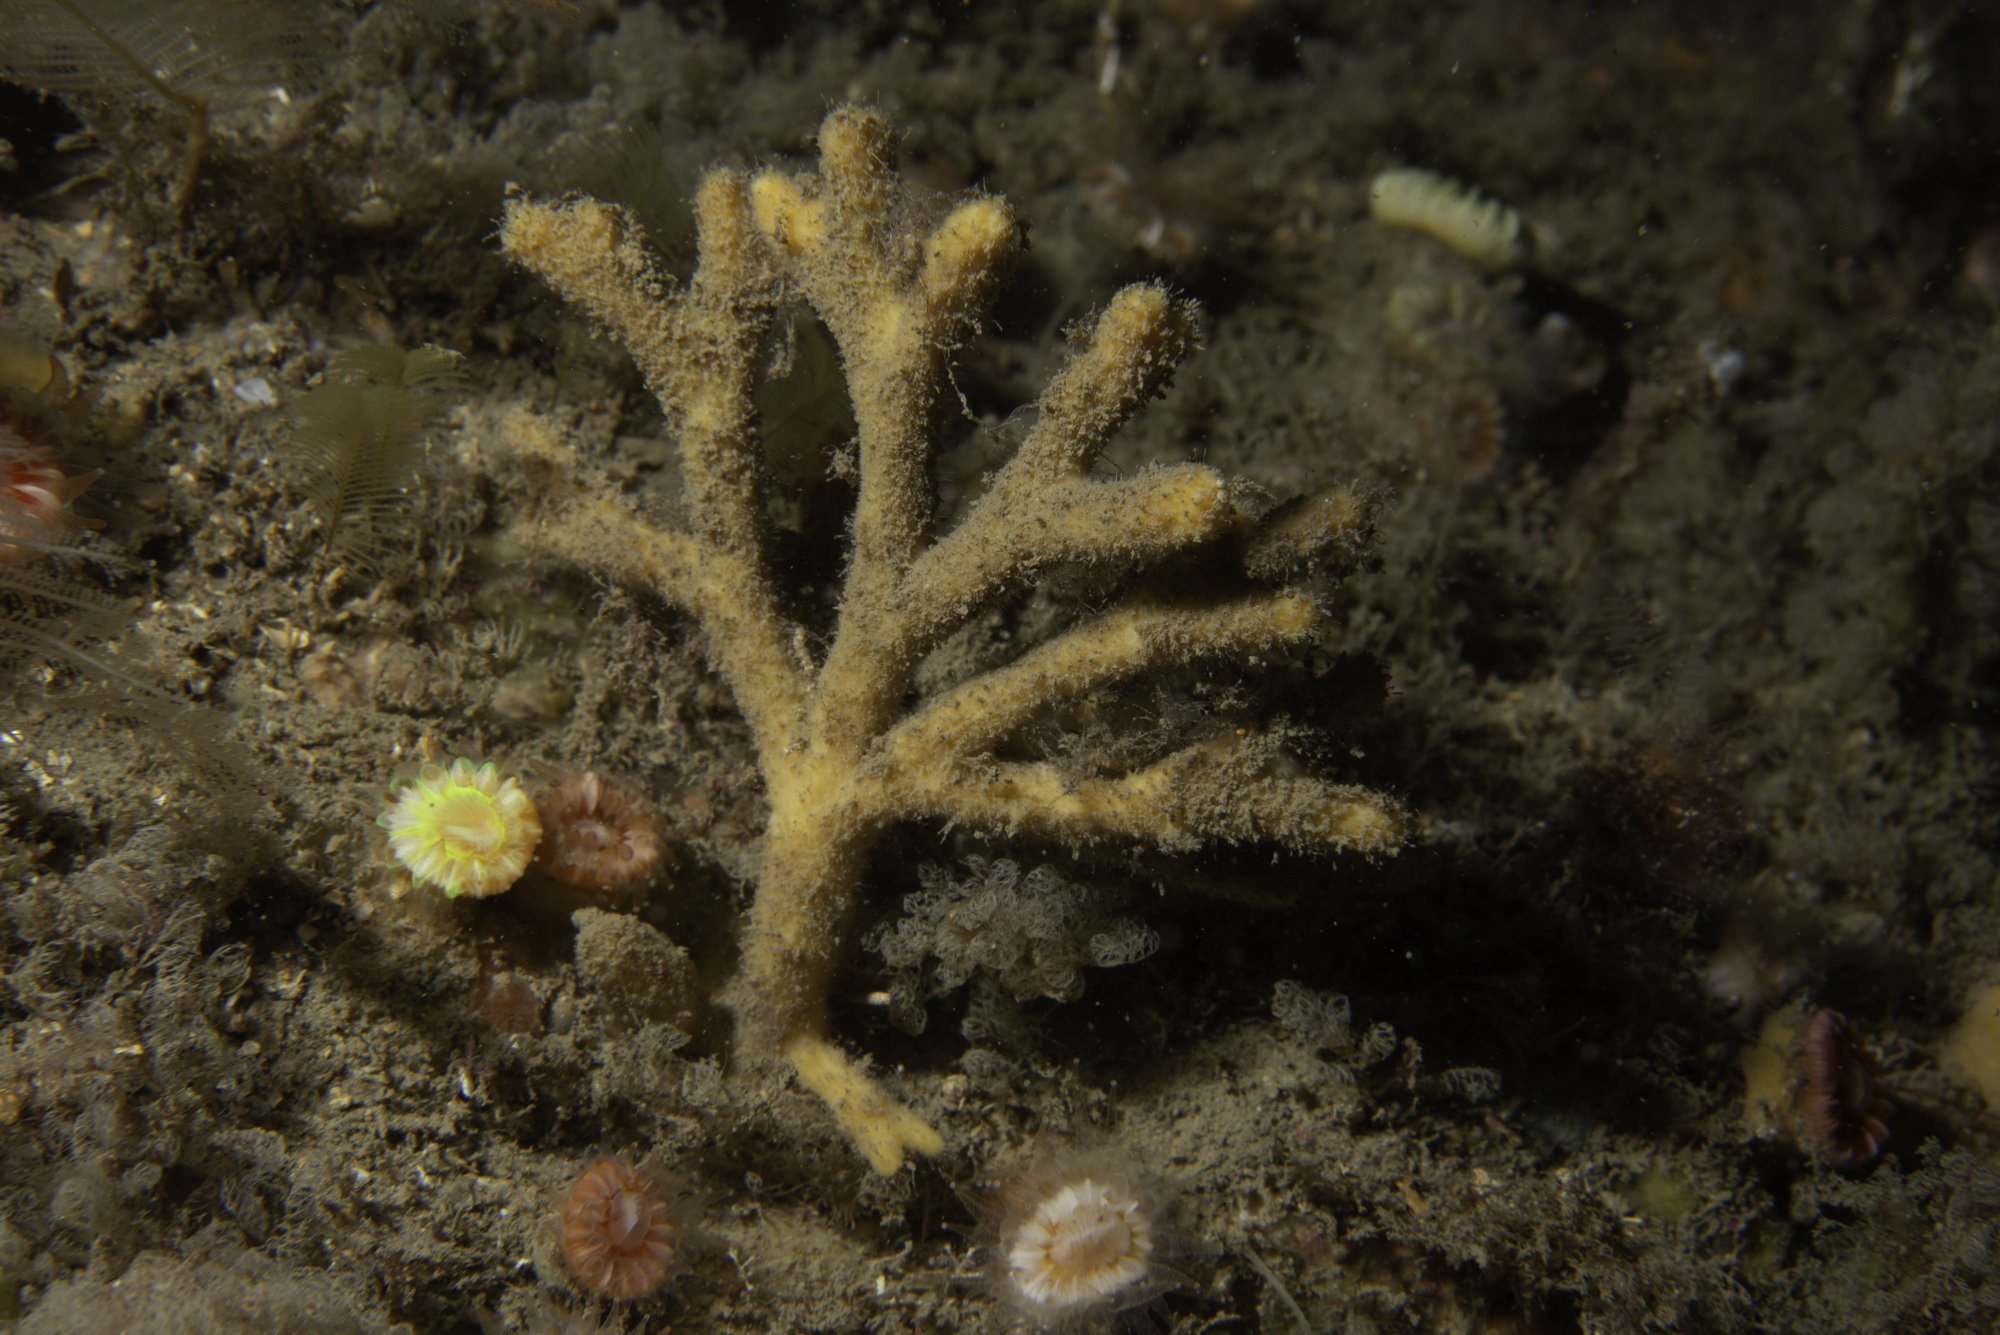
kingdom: Animalia
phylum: Porifera
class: Demospongiae
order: Axinellida
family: Stelligeridae
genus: Stelligera
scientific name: Stelligera stuposa
